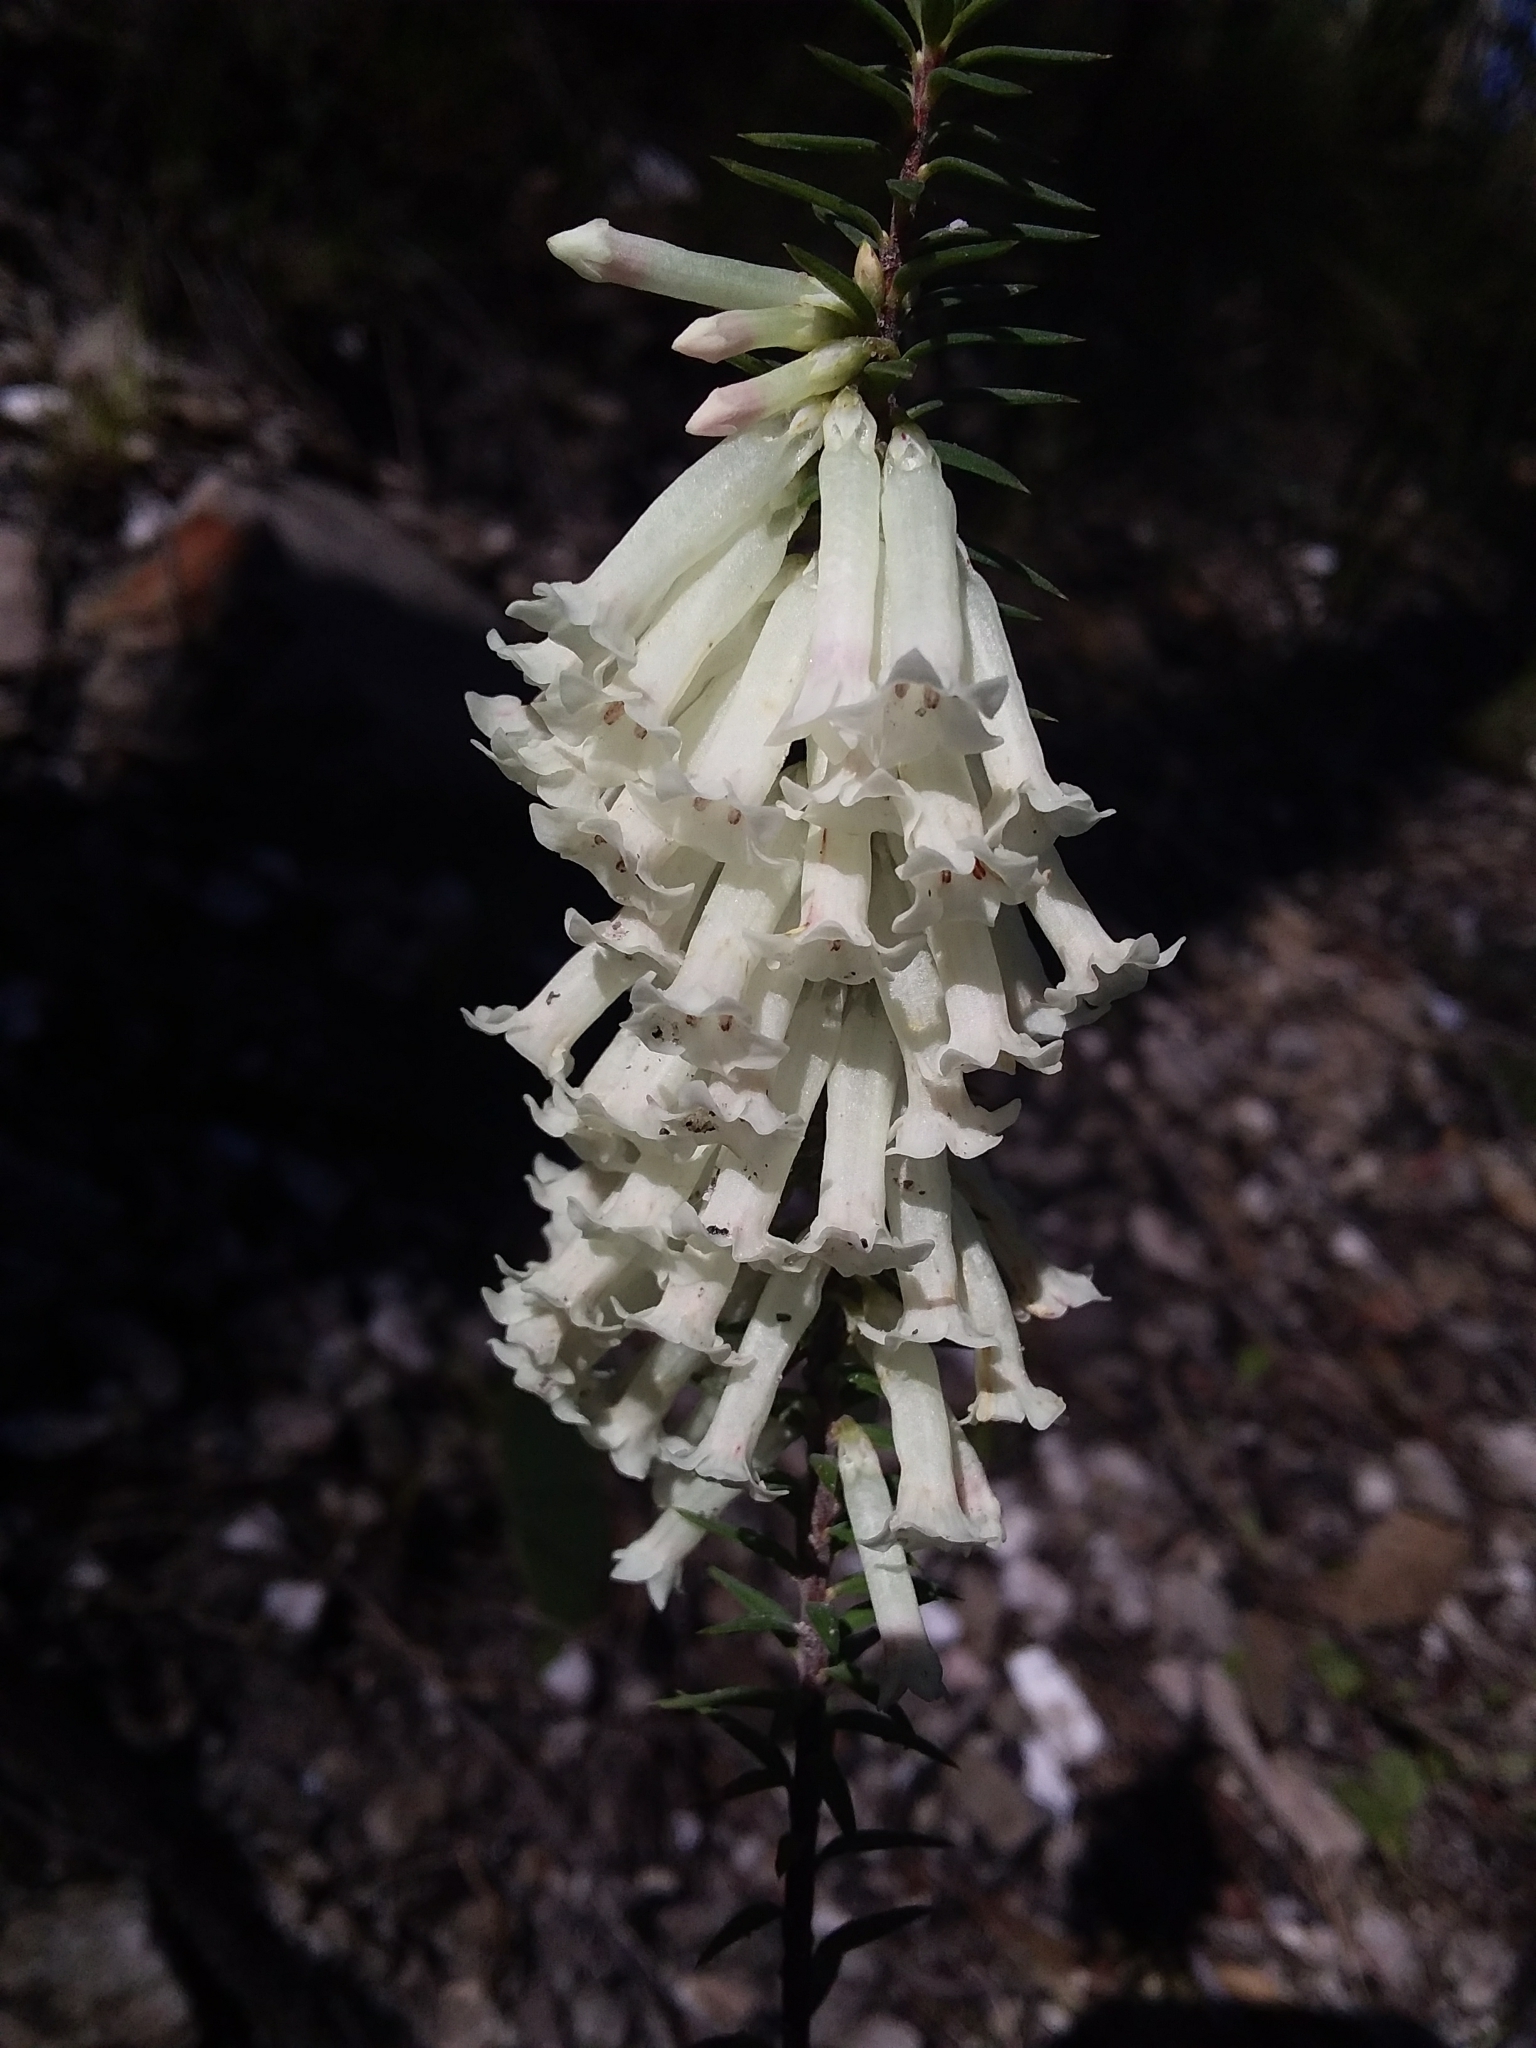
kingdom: Plantae
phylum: Tracheophyta
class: Magnoliopsida
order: Ericales
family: Ericaceae
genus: Epacris
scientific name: Epacris impressa
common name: Common-heath
